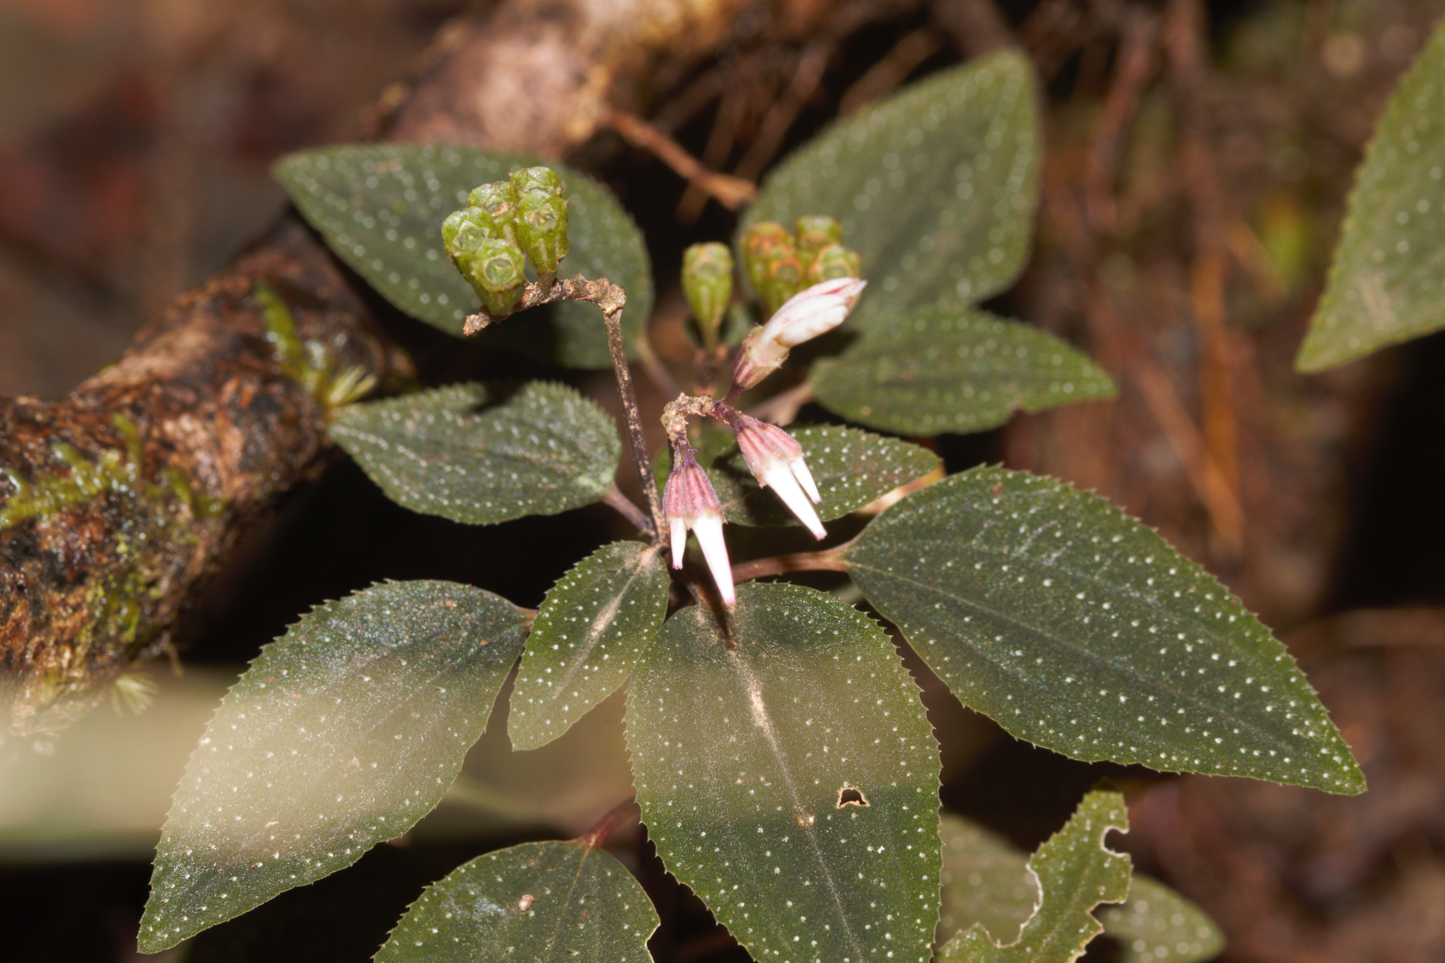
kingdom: Plantae
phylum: Tracheophyta
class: Magnoliopsida
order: Myrtales
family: Melastomataceae
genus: Macrocentrum
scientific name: Macrocentrum cristatum
